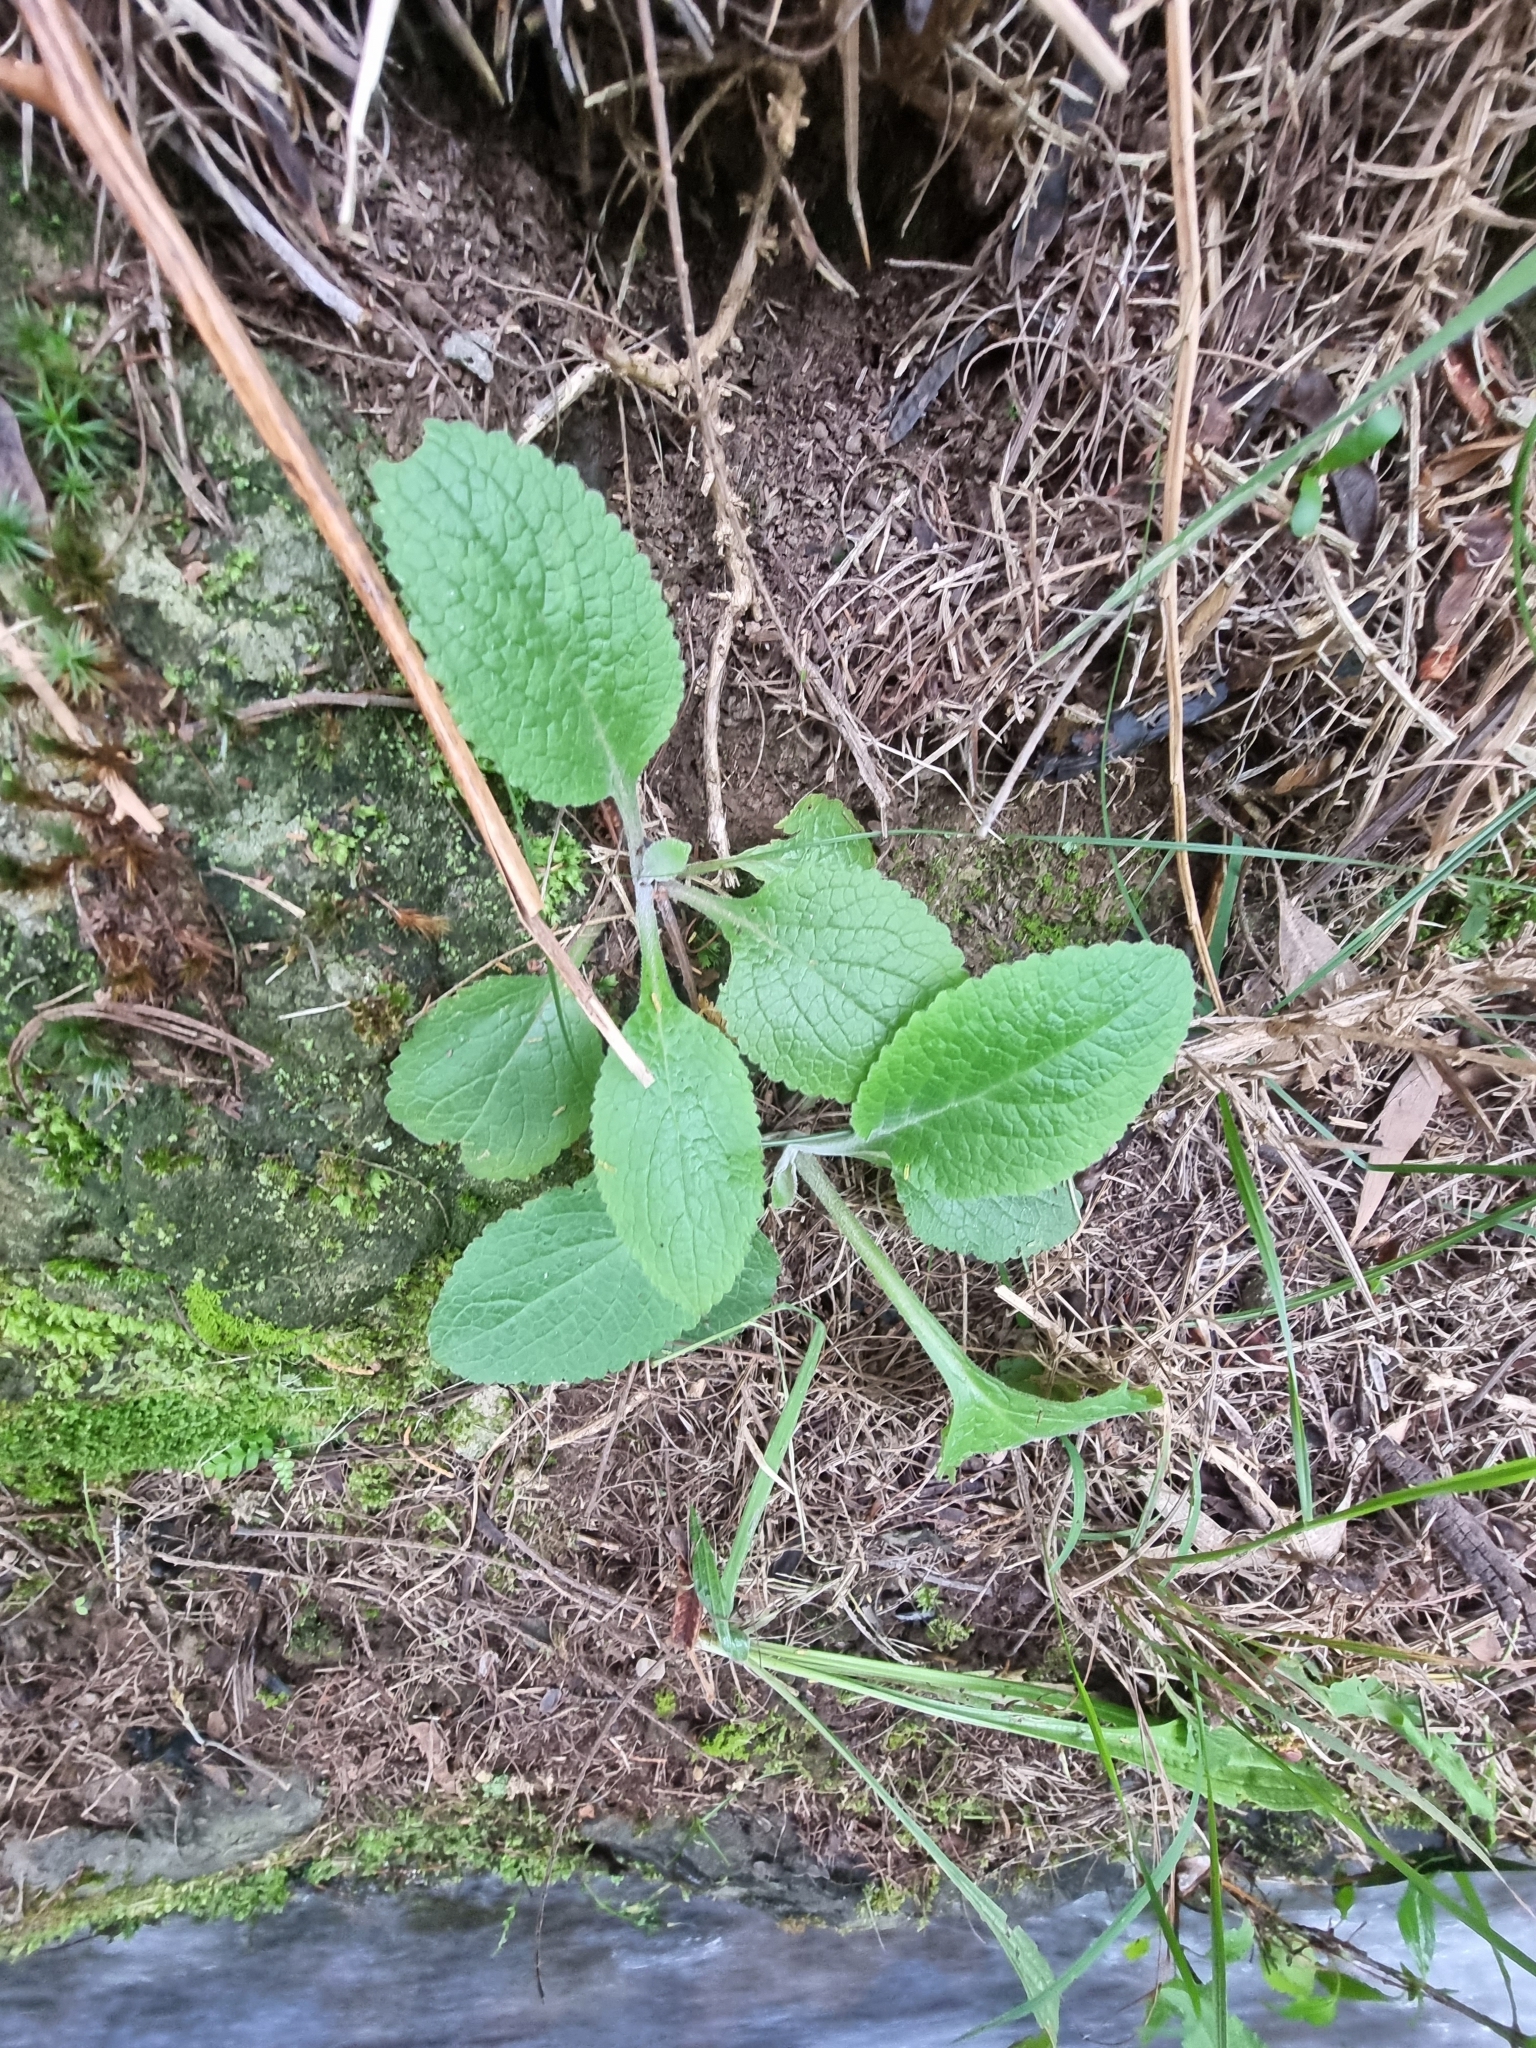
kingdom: Plantae
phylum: Tracheophyta
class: Magnoliopsida
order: Lamiales
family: Plantaginaceae
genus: Digitalis
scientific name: Digitalis purpurea
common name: Foxglove
